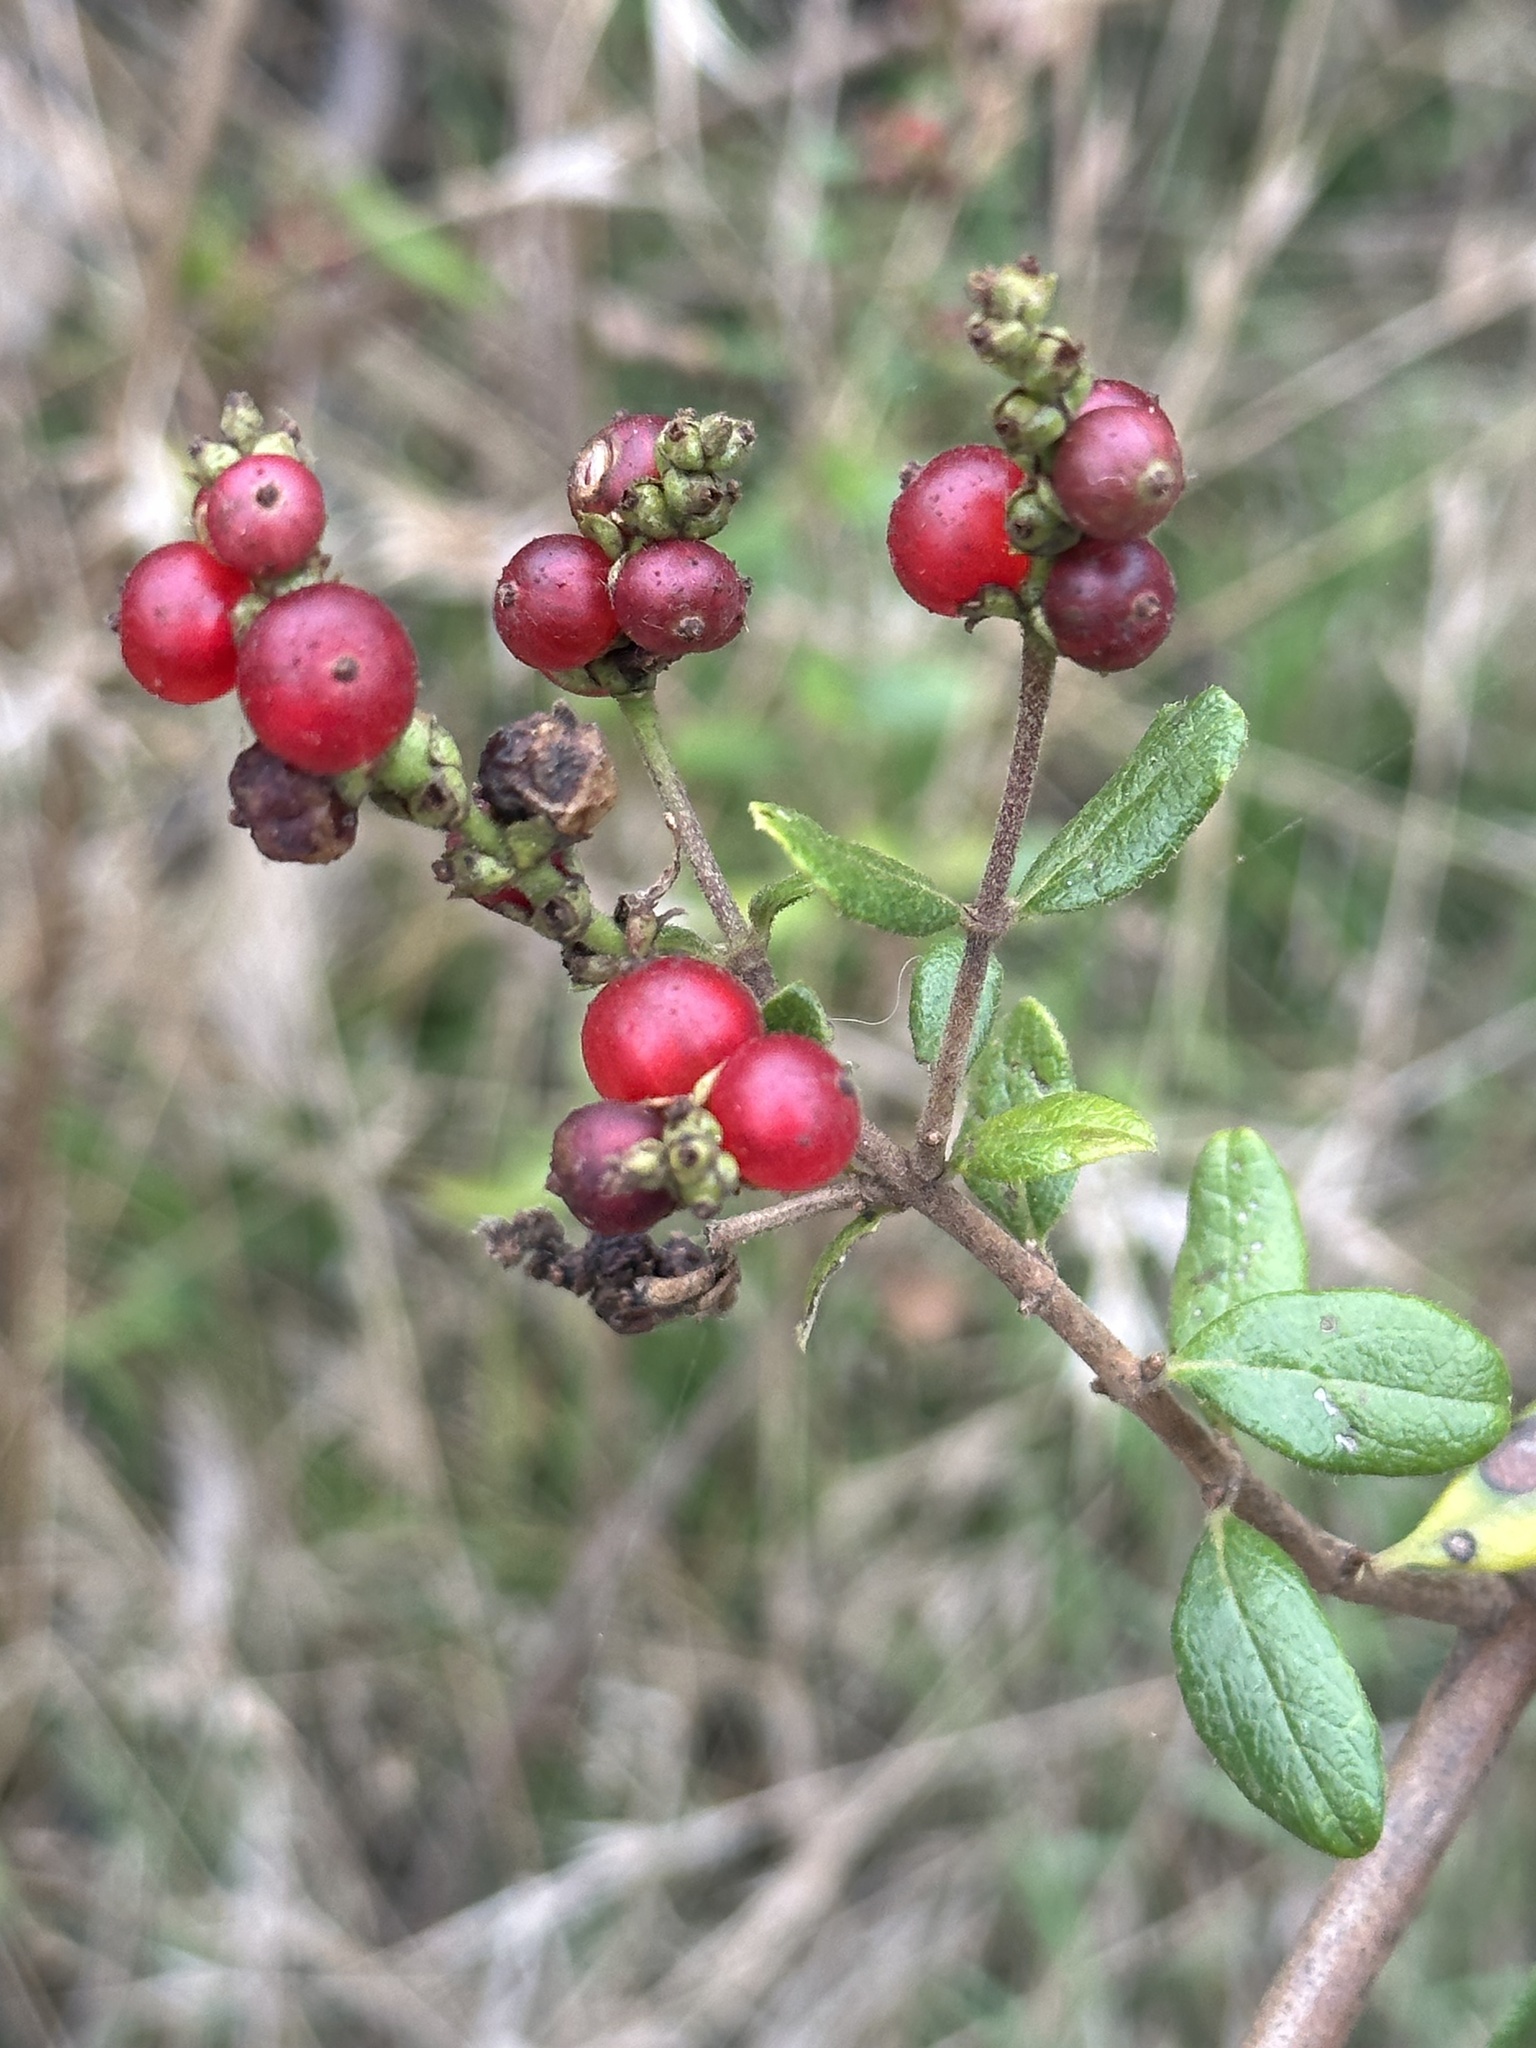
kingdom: Plantae
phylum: Tracheophyta
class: Magnoliopsida
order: Dipsacales
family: Caprifoliaceae
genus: Lonicera
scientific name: Lonicera subspicata
